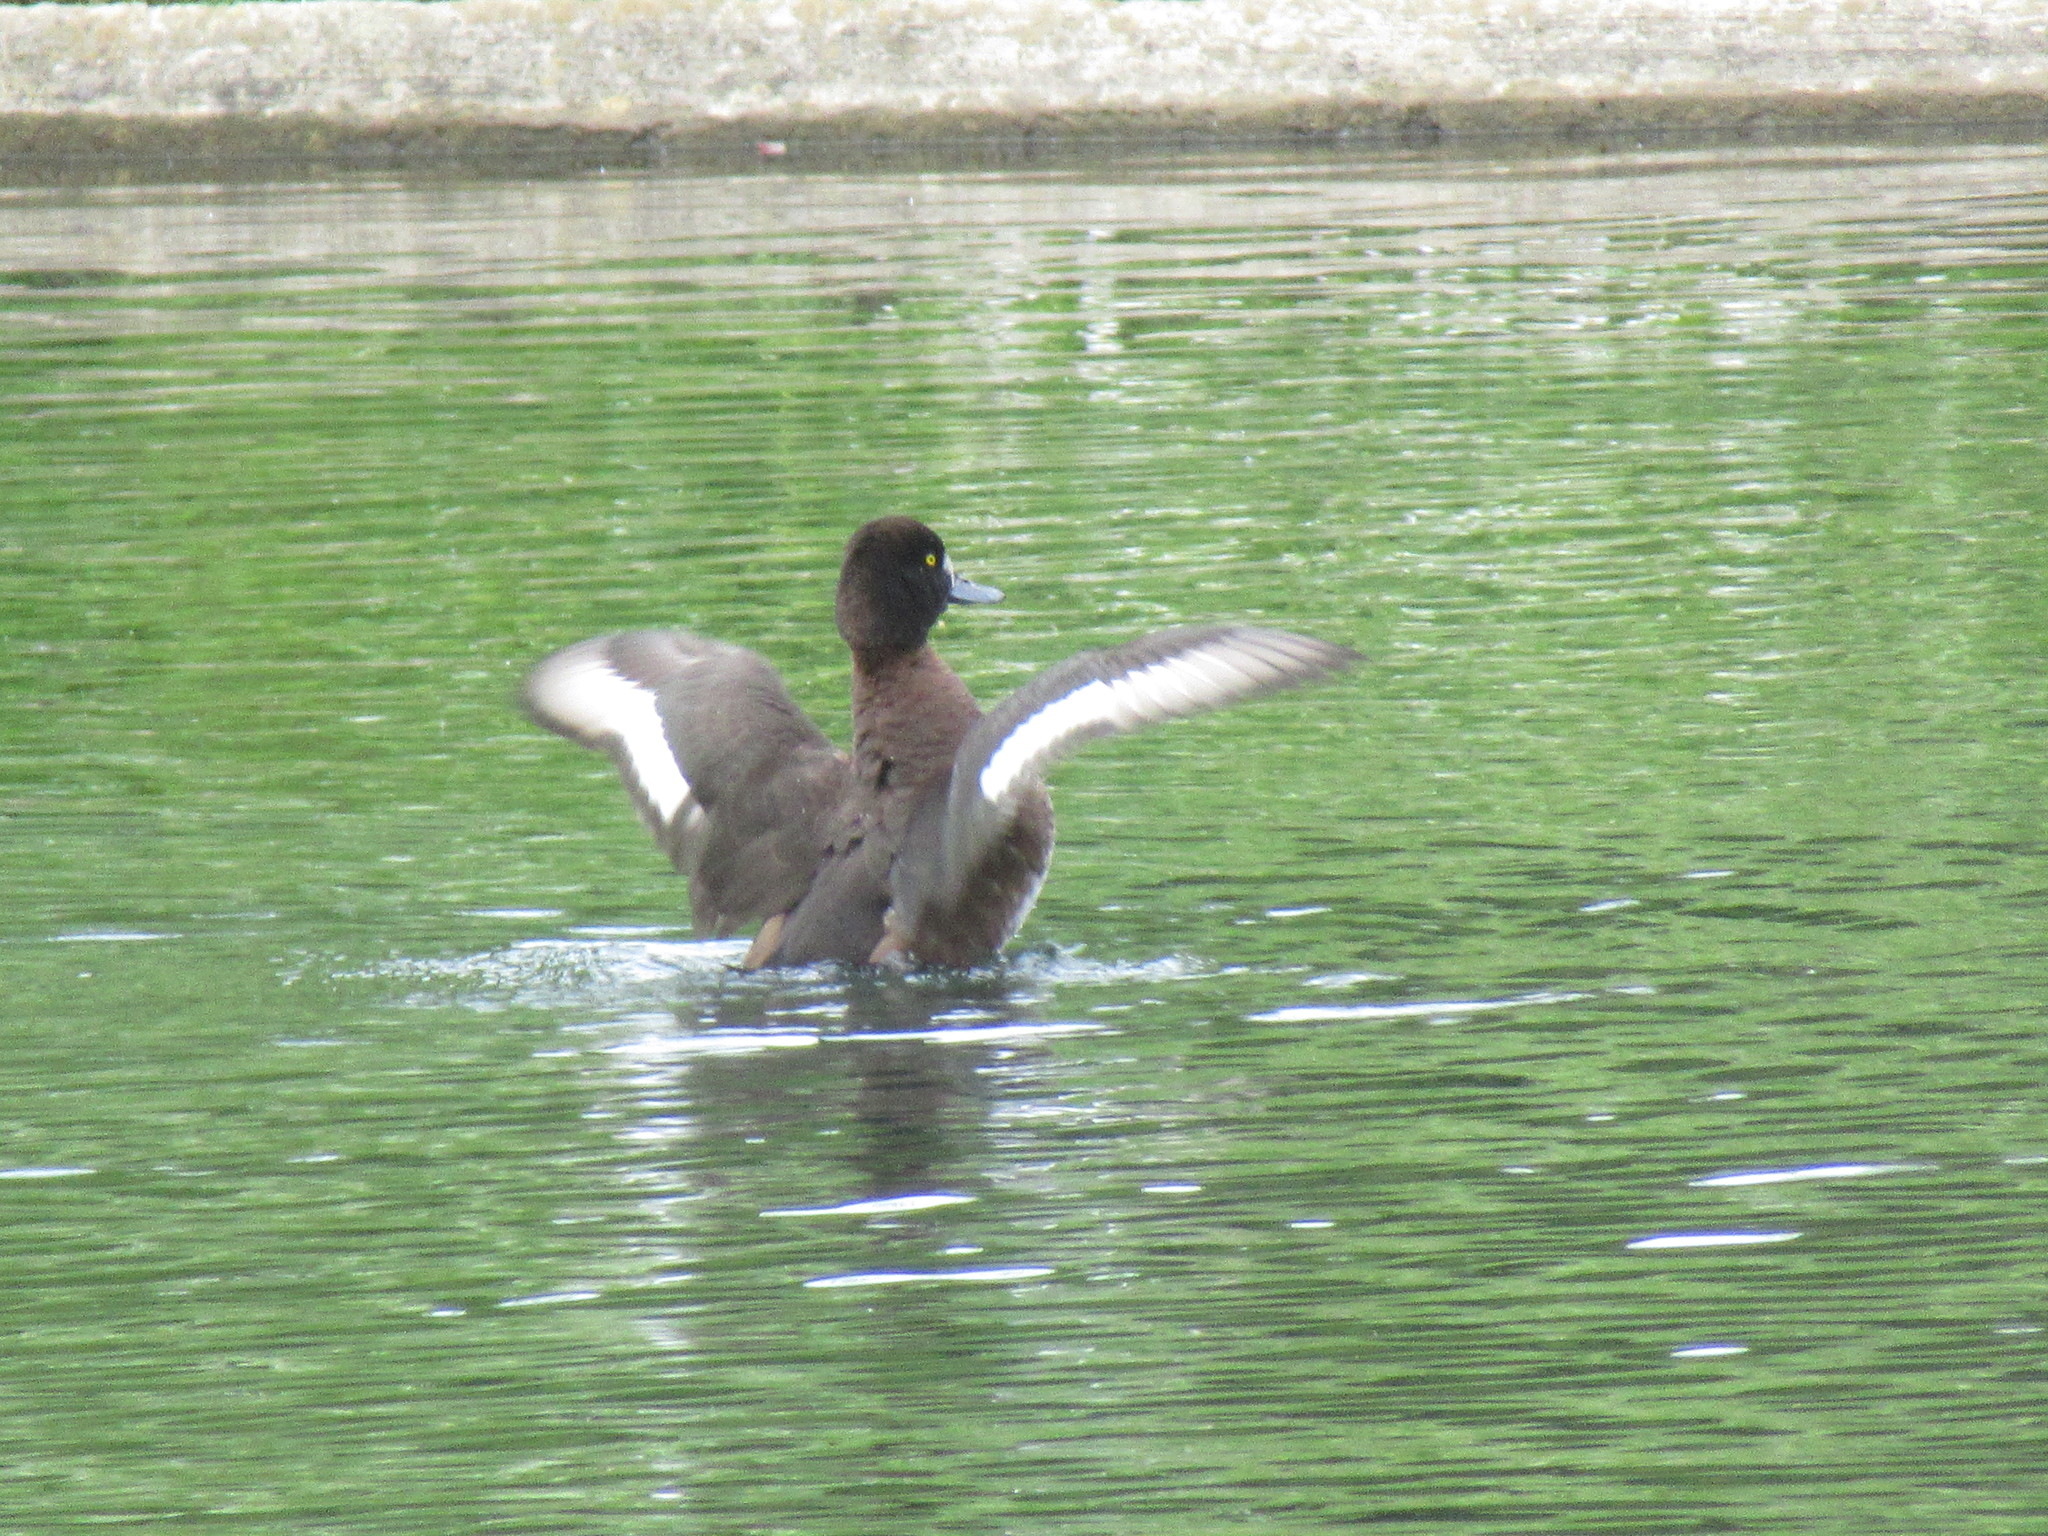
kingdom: Animalia
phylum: Chordata
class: Aves
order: Anseriformes
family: Anatidae
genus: Aythya
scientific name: Aythya fuligula
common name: Tufted duck
